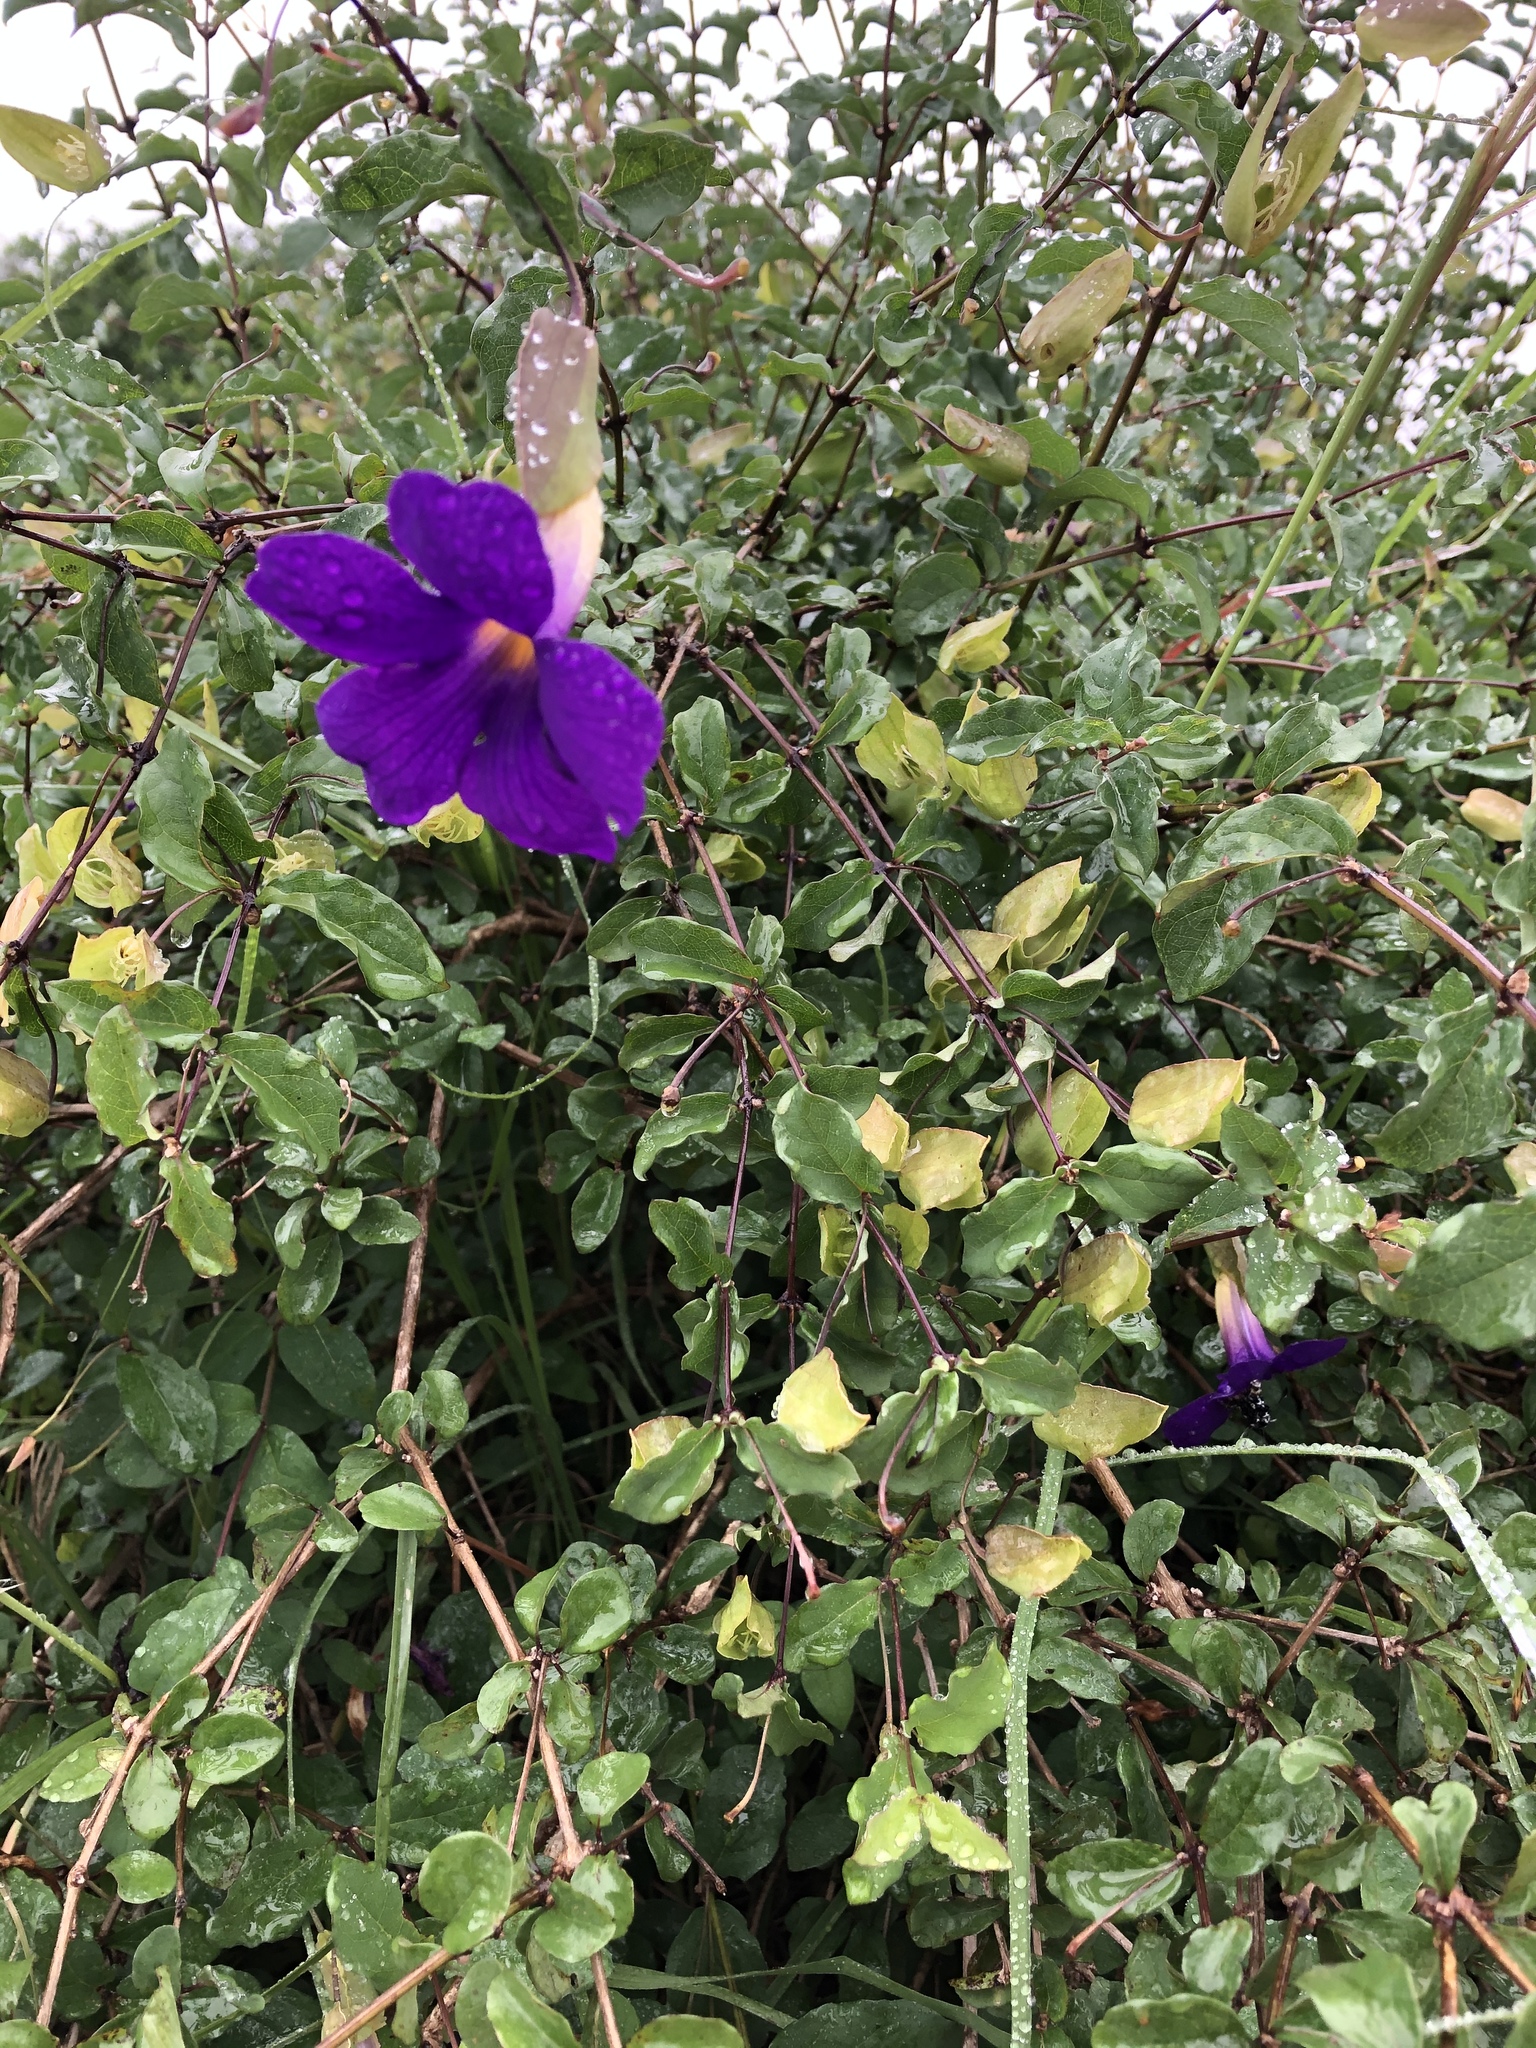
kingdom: Plantae
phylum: Tracheophyta
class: Magnoliopsida
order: Lamiales
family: Acanthaceae
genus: Thunbergia
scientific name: Thunbergia erecta
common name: Bush clockvine
